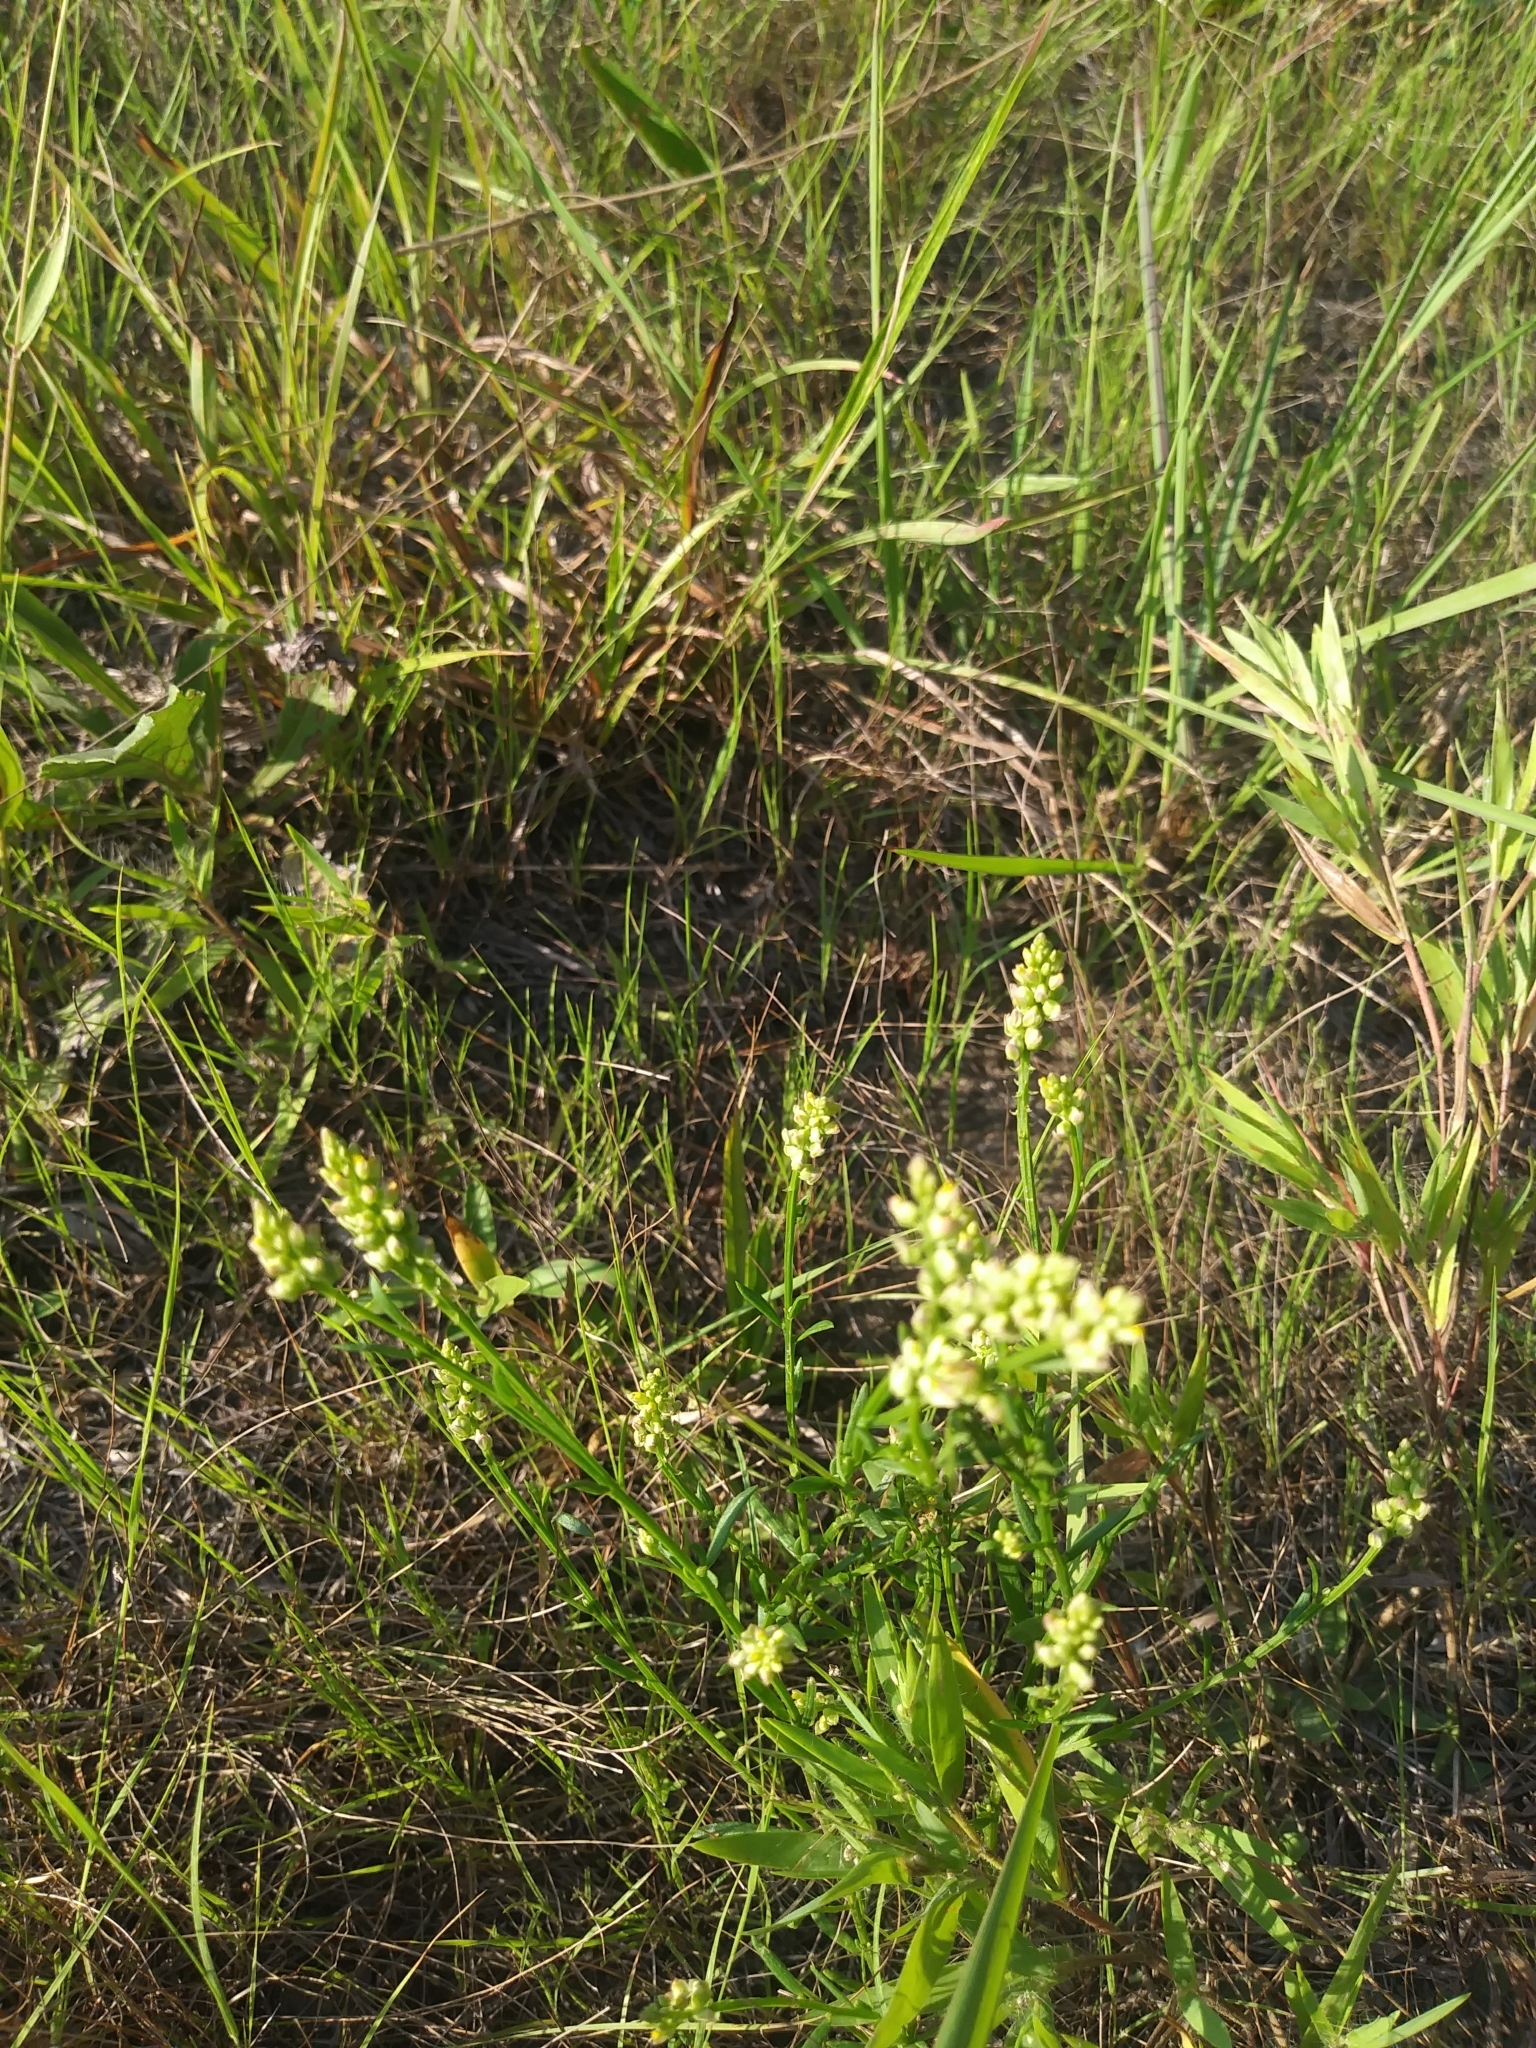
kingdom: Plantae
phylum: Tracheophyta
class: Magnoliopsida
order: Fabales
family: Polygalaceae
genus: Polygala
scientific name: Polygala nuttallii
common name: Nuttall's milkwort
